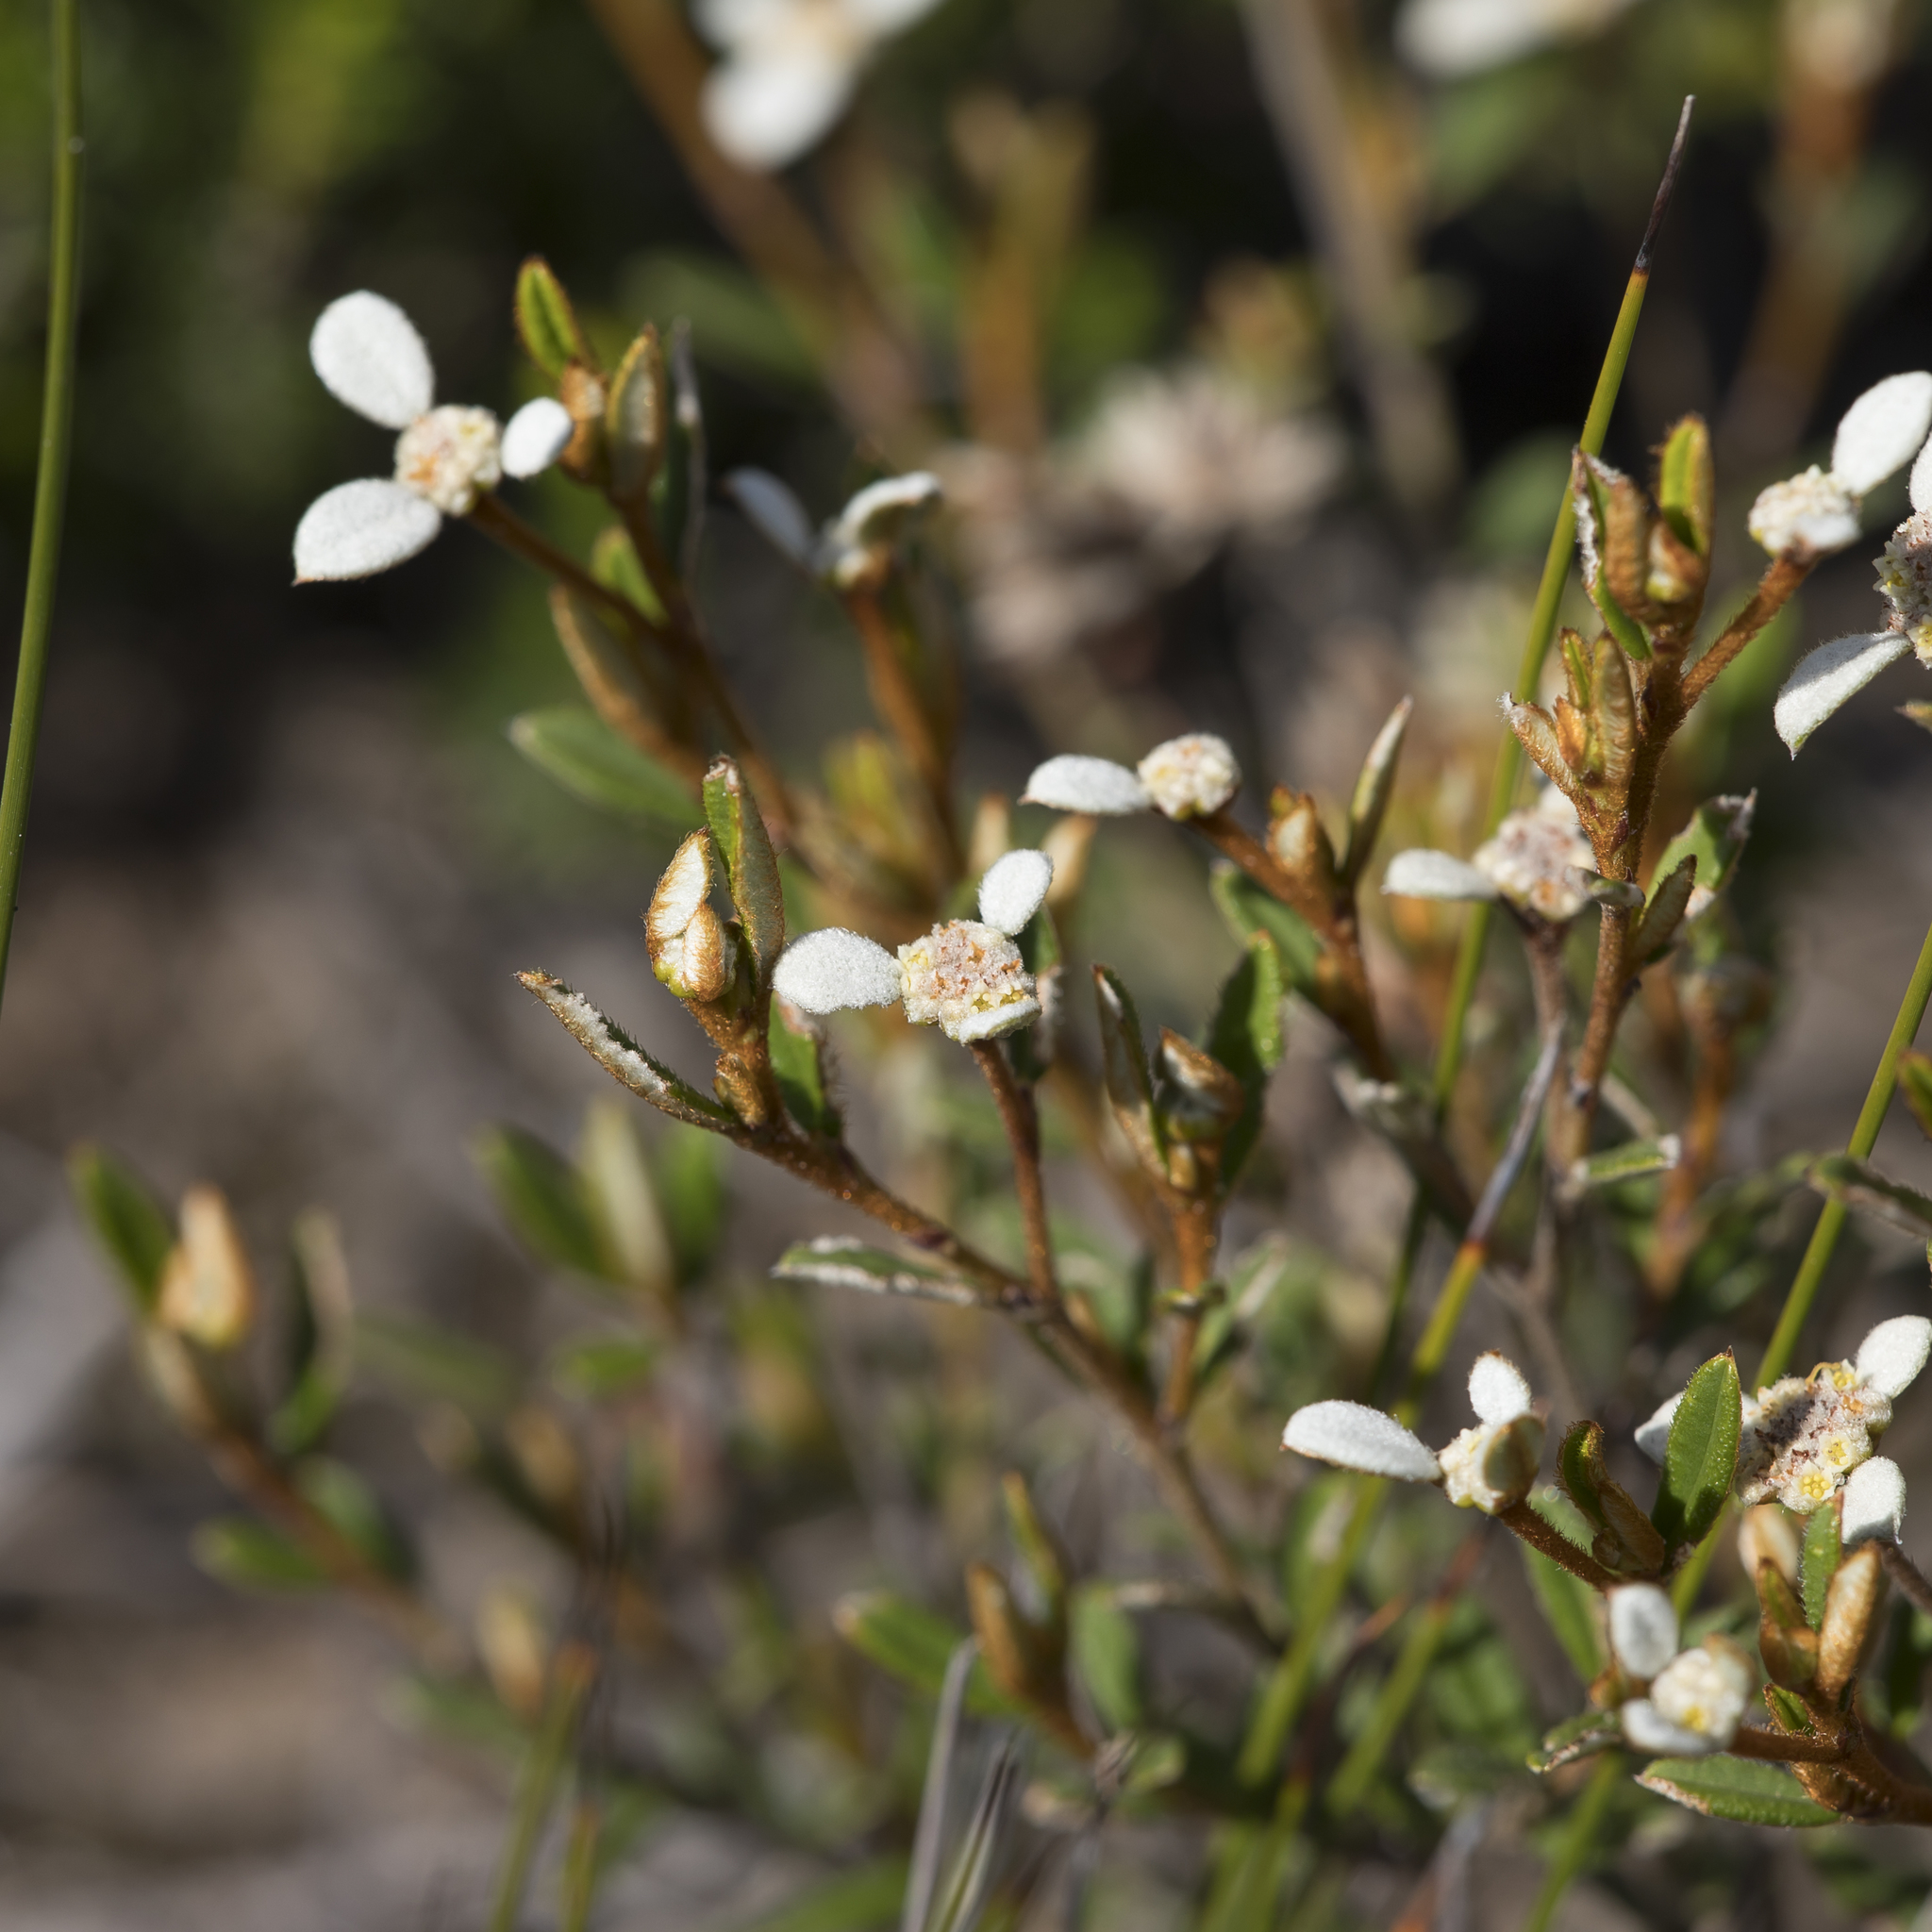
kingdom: Plantae
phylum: Tracheophyta
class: Magnoliopsida
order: Rosales
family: Rhamnaceae
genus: Spyridium
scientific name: Spyridium vexilliferum
